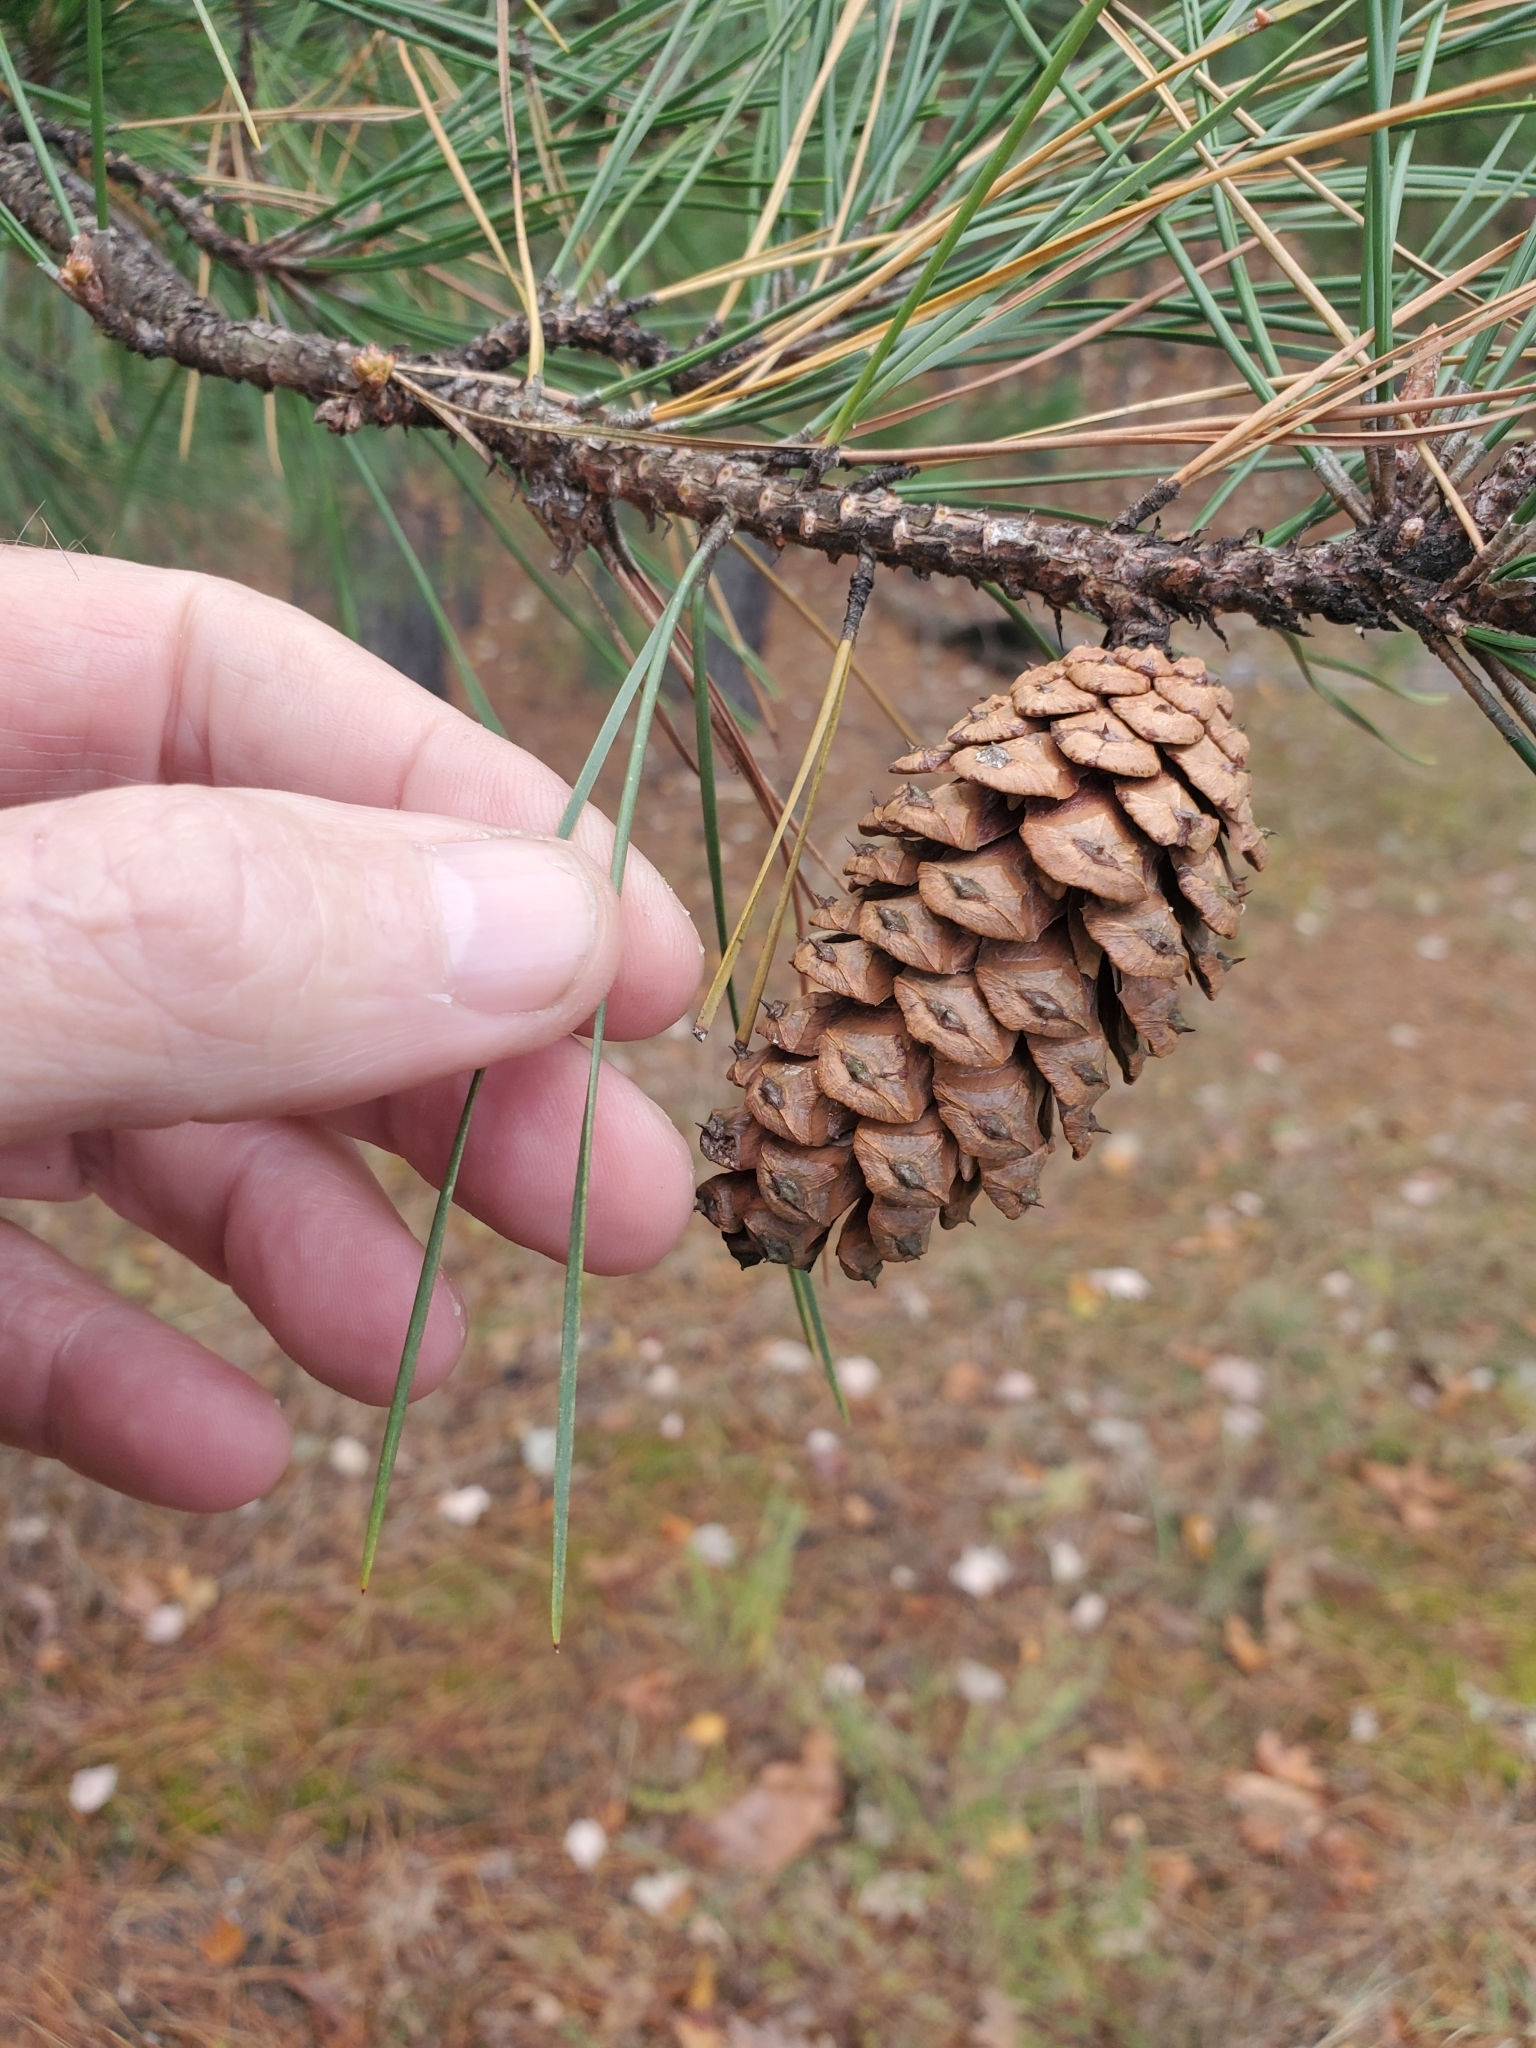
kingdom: Plantae
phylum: Tracheophyta
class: Pinopsida
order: Pinales
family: Pinaceae
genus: Pinus
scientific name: Pinus echinata
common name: Shortleaf pine
